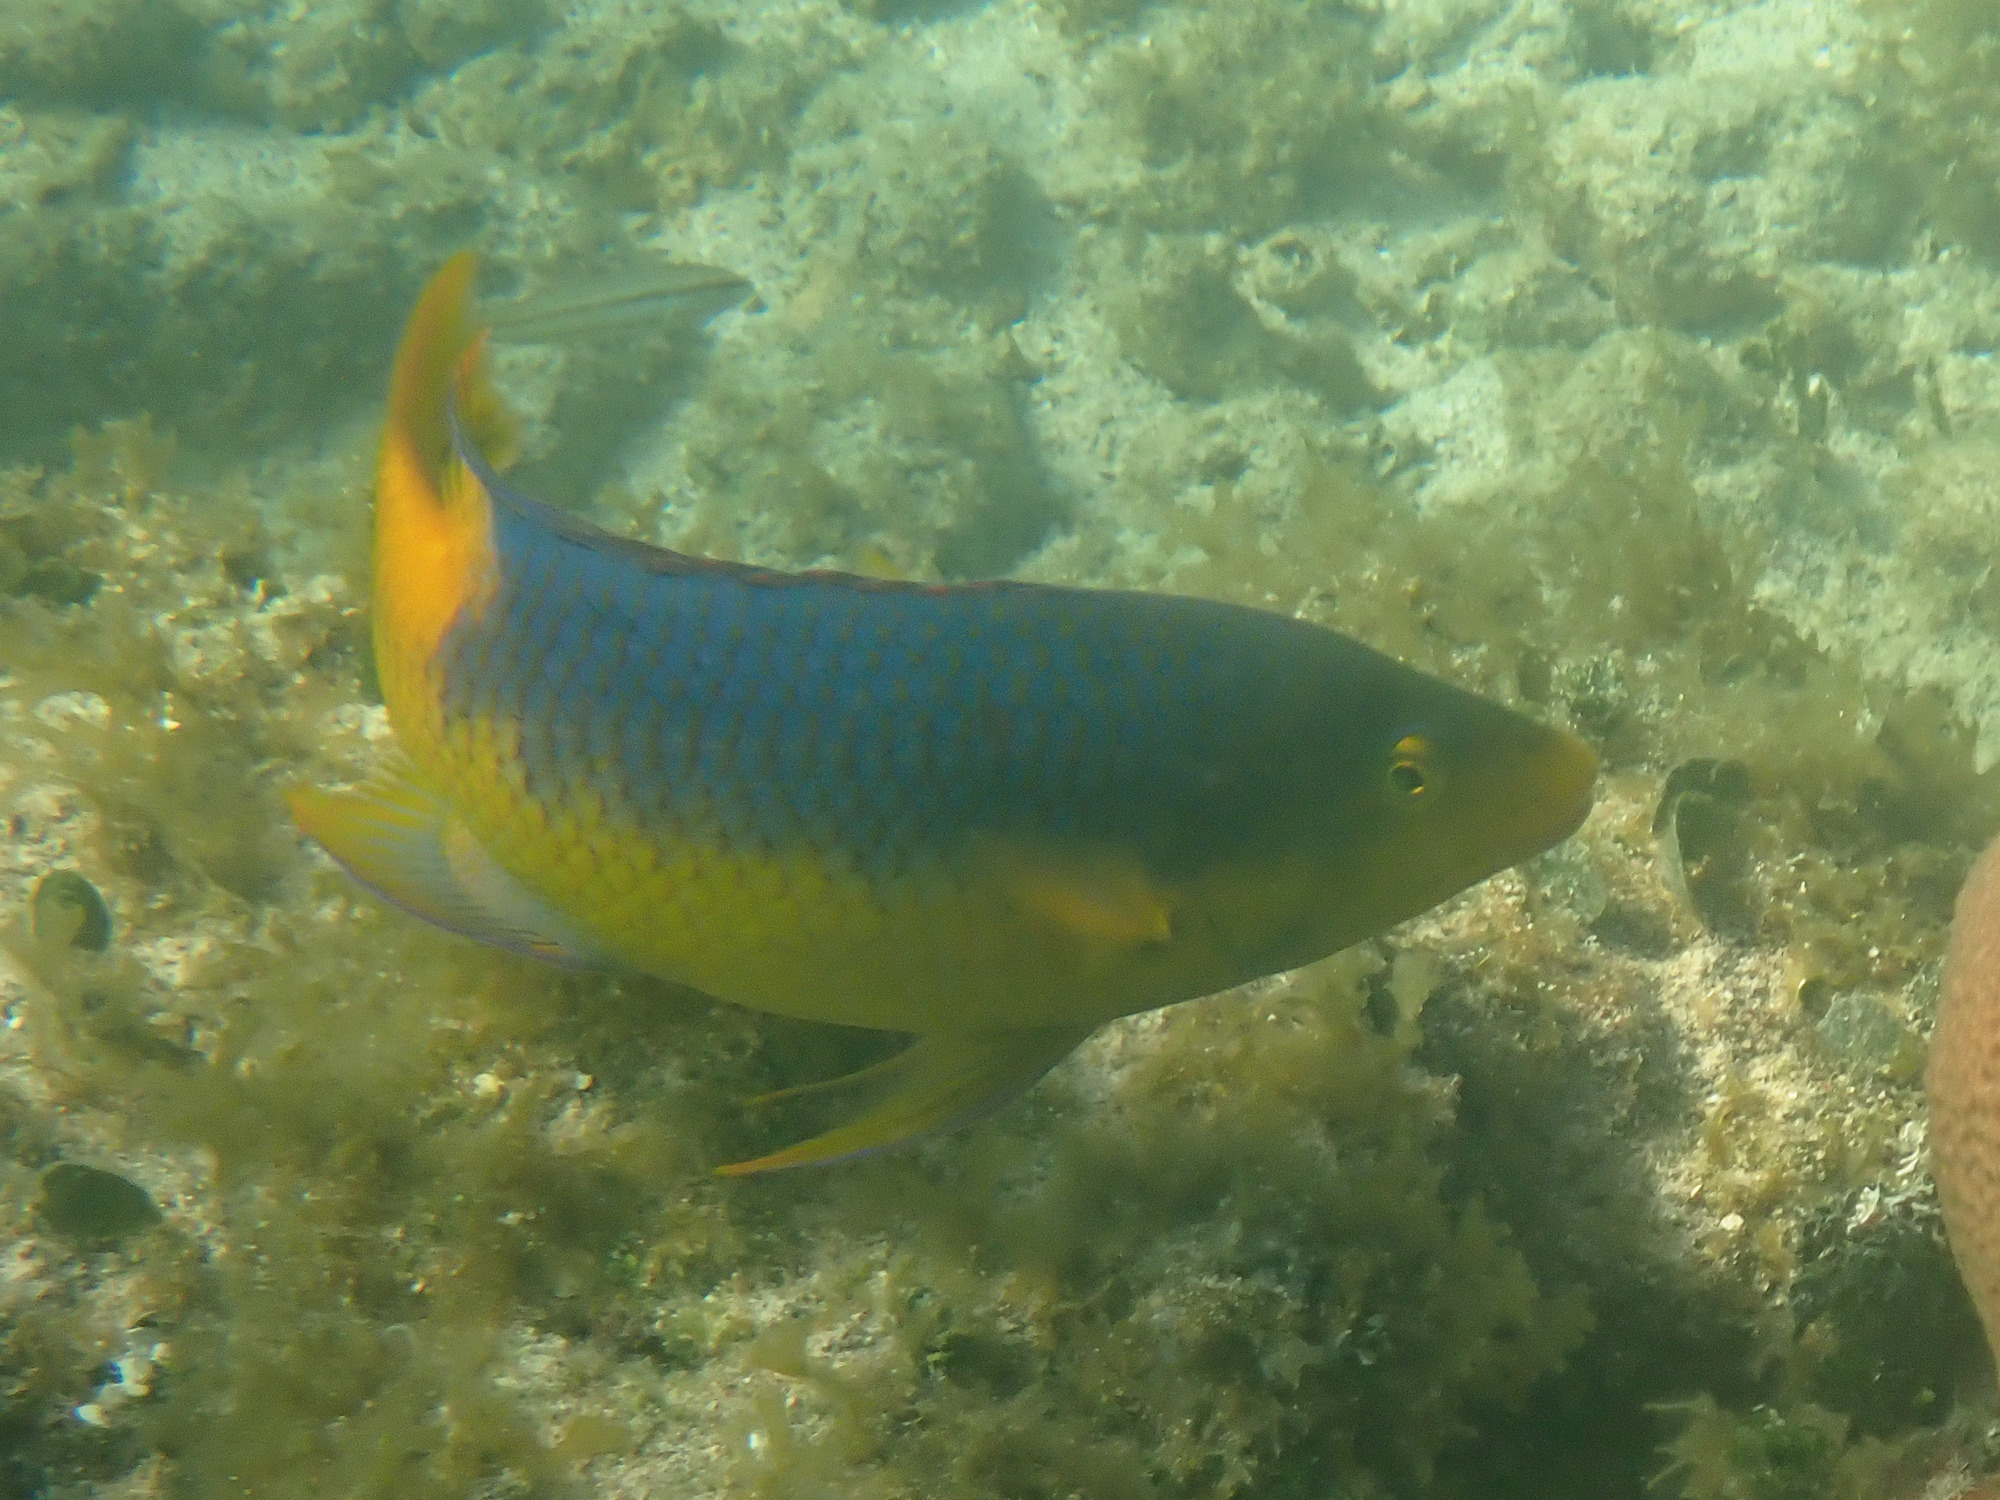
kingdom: Animalia
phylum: Chordata
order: Perciformes
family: Labridae
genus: Bodianus
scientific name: Bodianus rufus
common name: Spanish hogfish
